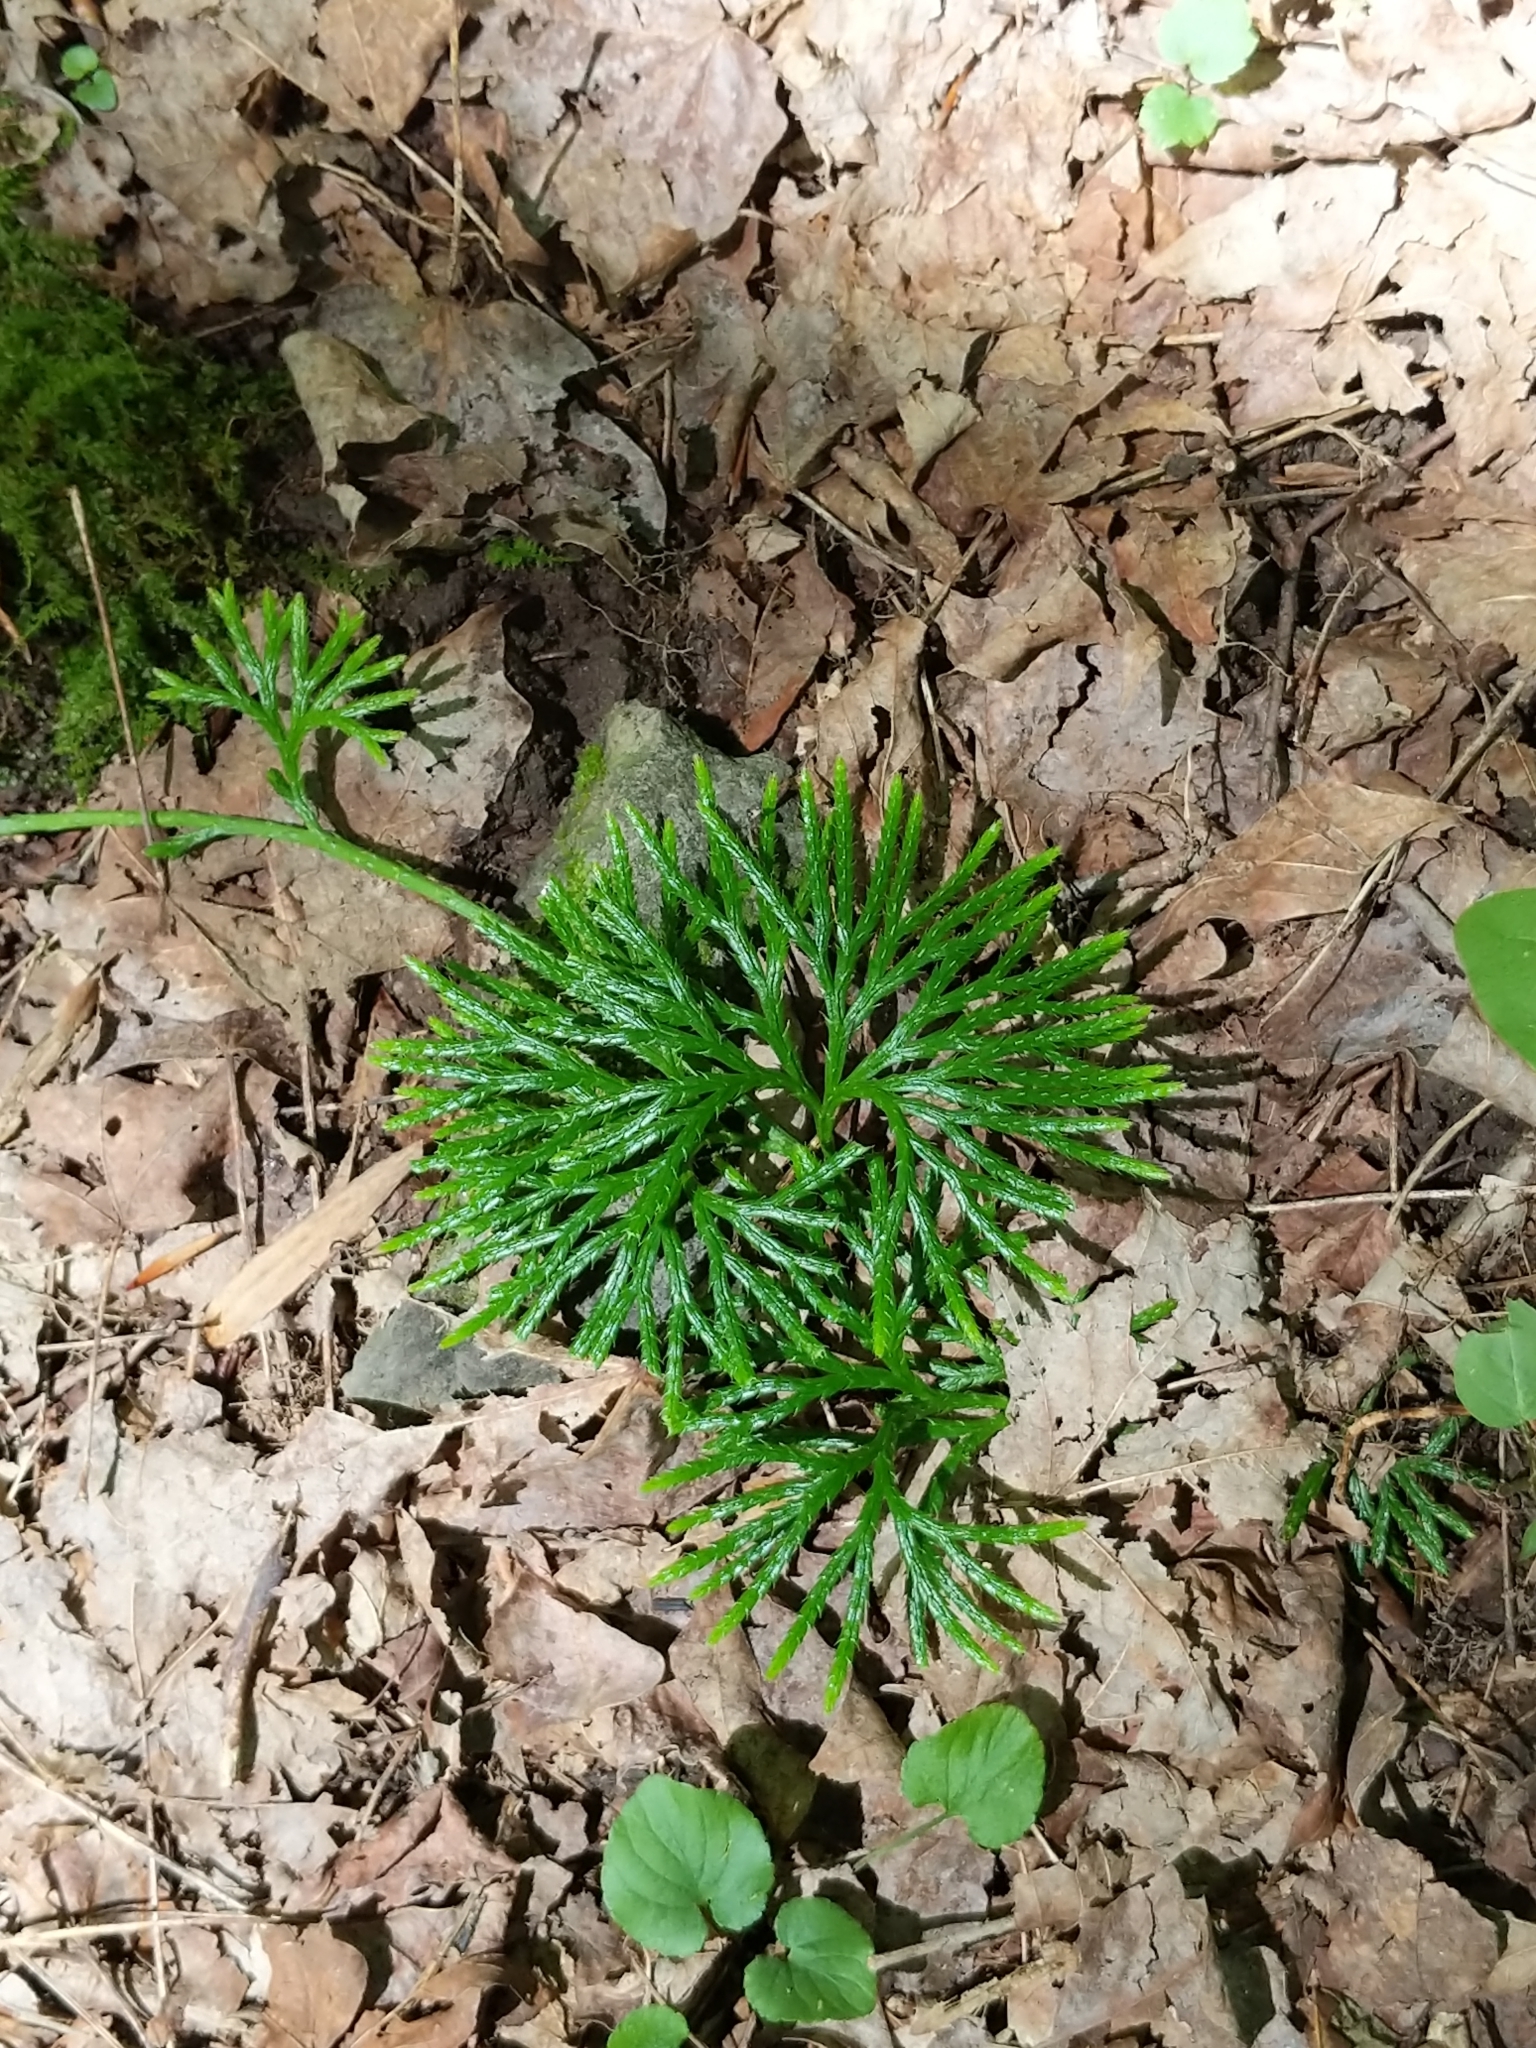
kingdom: Plantae
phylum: Tracheophyta
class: Lycopodiopsida
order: Lycopodiales
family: Lycopodiaceae
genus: Diphasiastrum
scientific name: Diphasiastrum digitatum
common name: Southern running-pine
